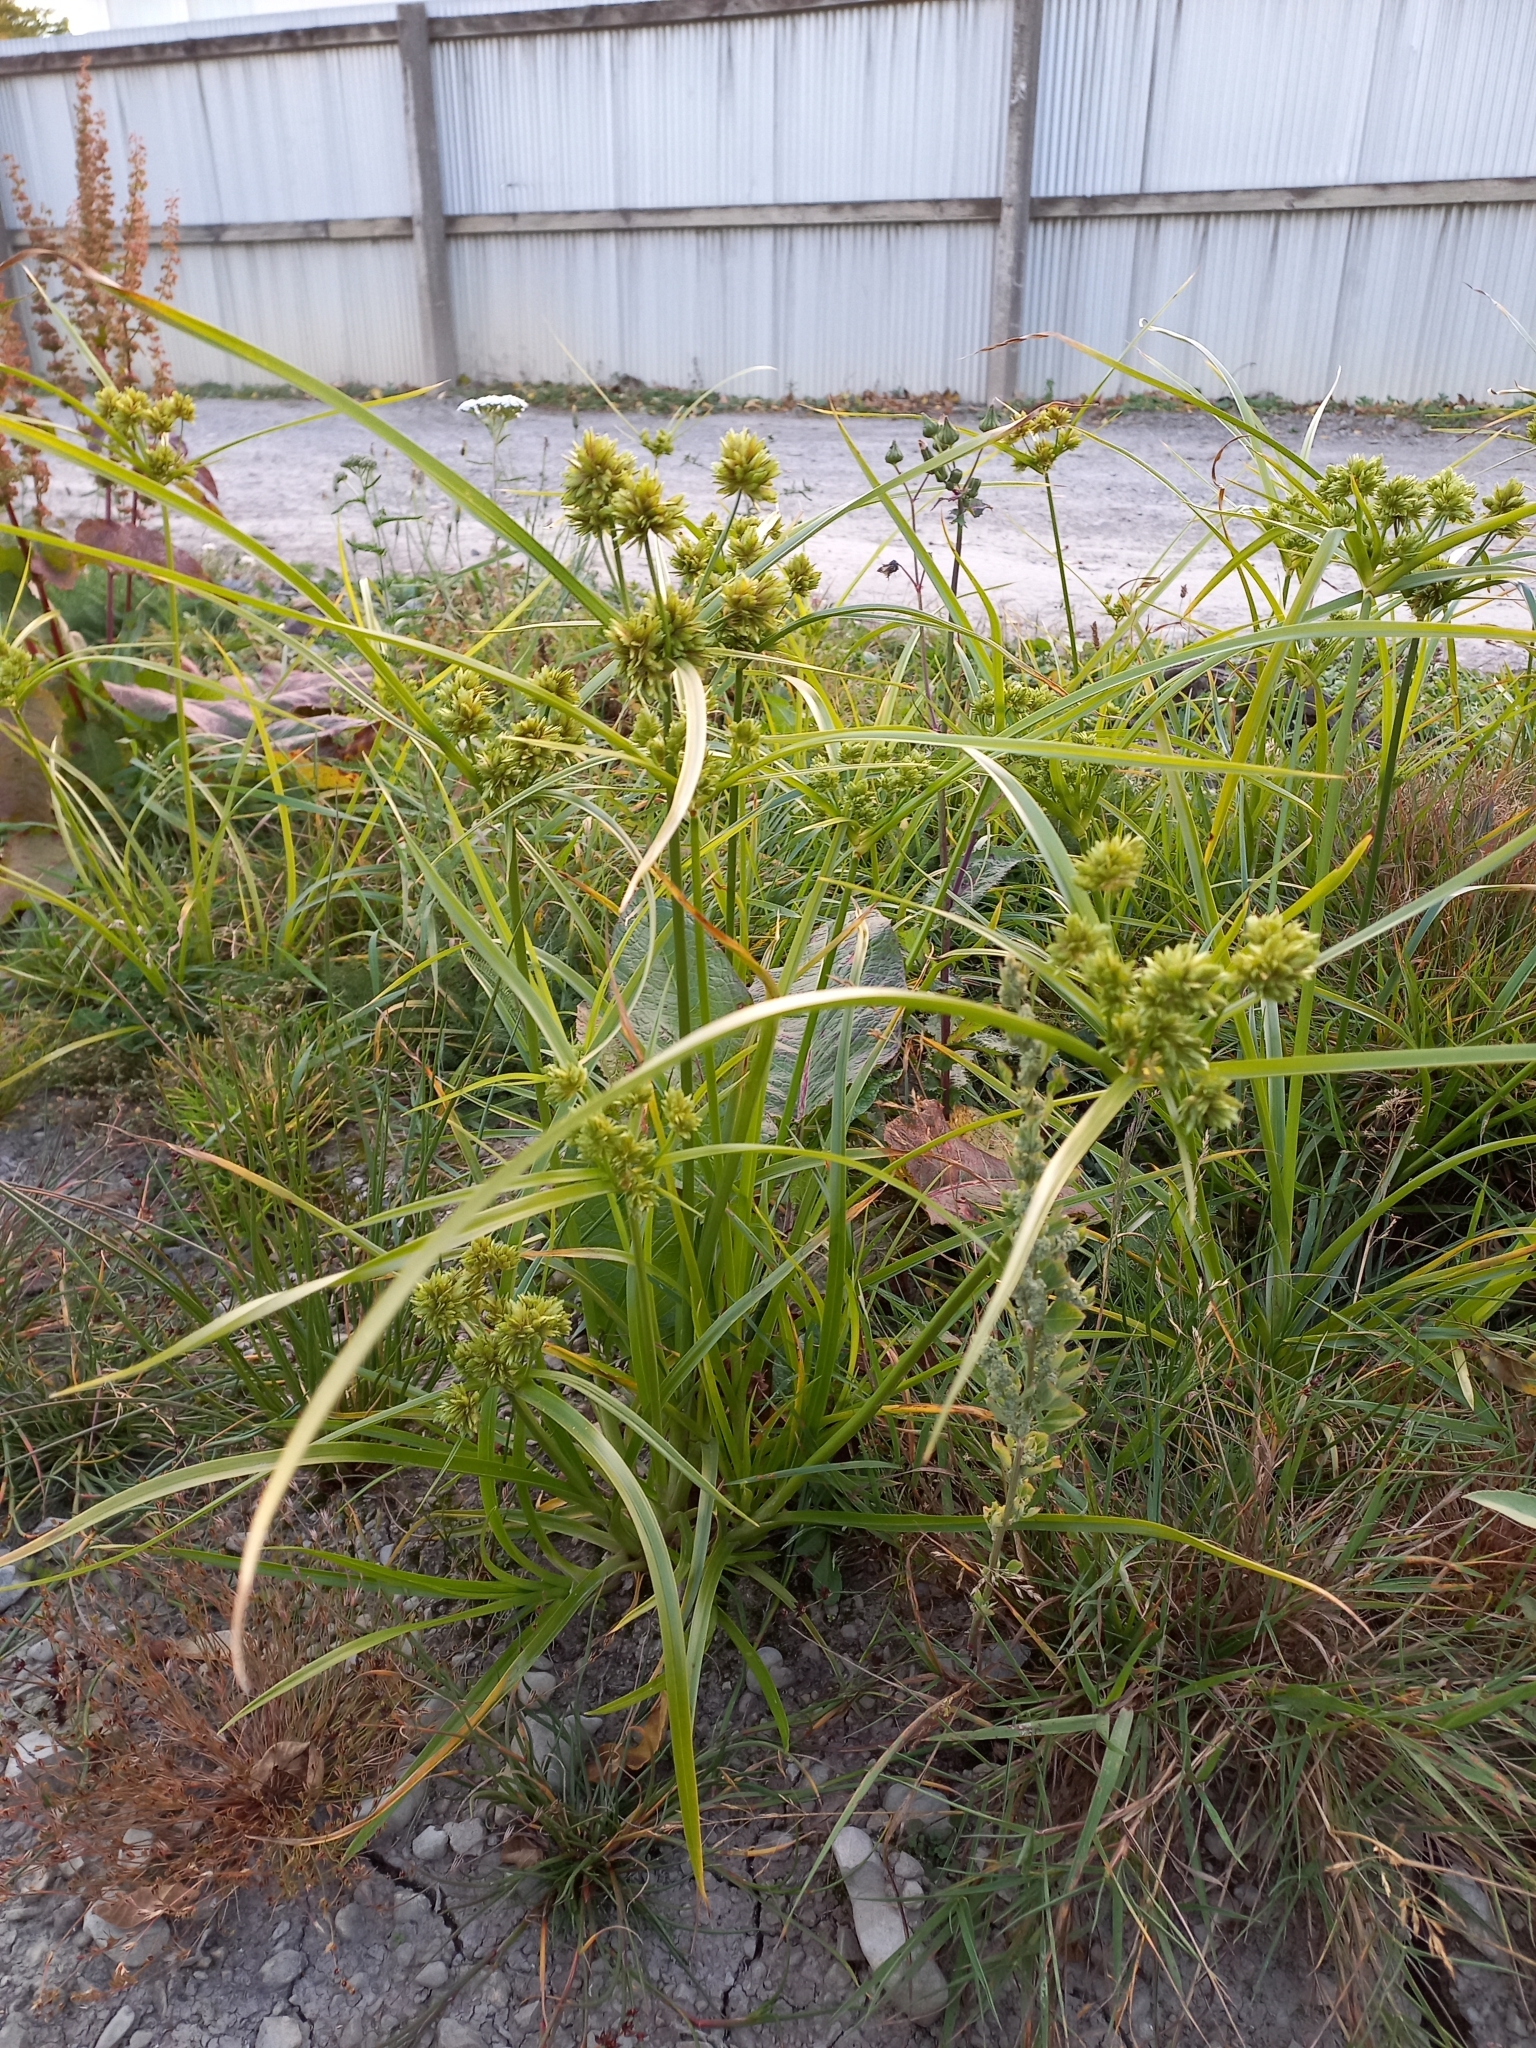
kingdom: Plantae
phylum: Tracheophyta
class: Liliopsida
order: Poales
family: Cyperaceae
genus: Cyperus
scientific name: Cyperus eragrostis
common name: Tall flatsedge
